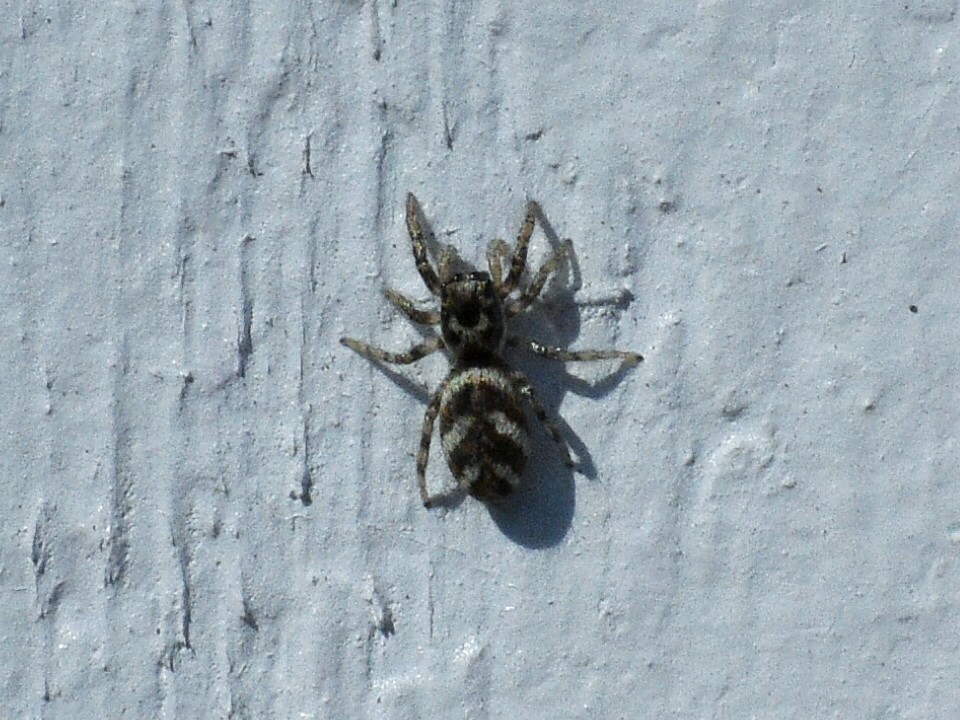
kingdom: Animalia
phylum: Arthropoda
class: Arachnida
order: Araneae
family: Salticidae
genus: Salticus
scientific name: Salticus scenicus
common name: Zebra jumper
